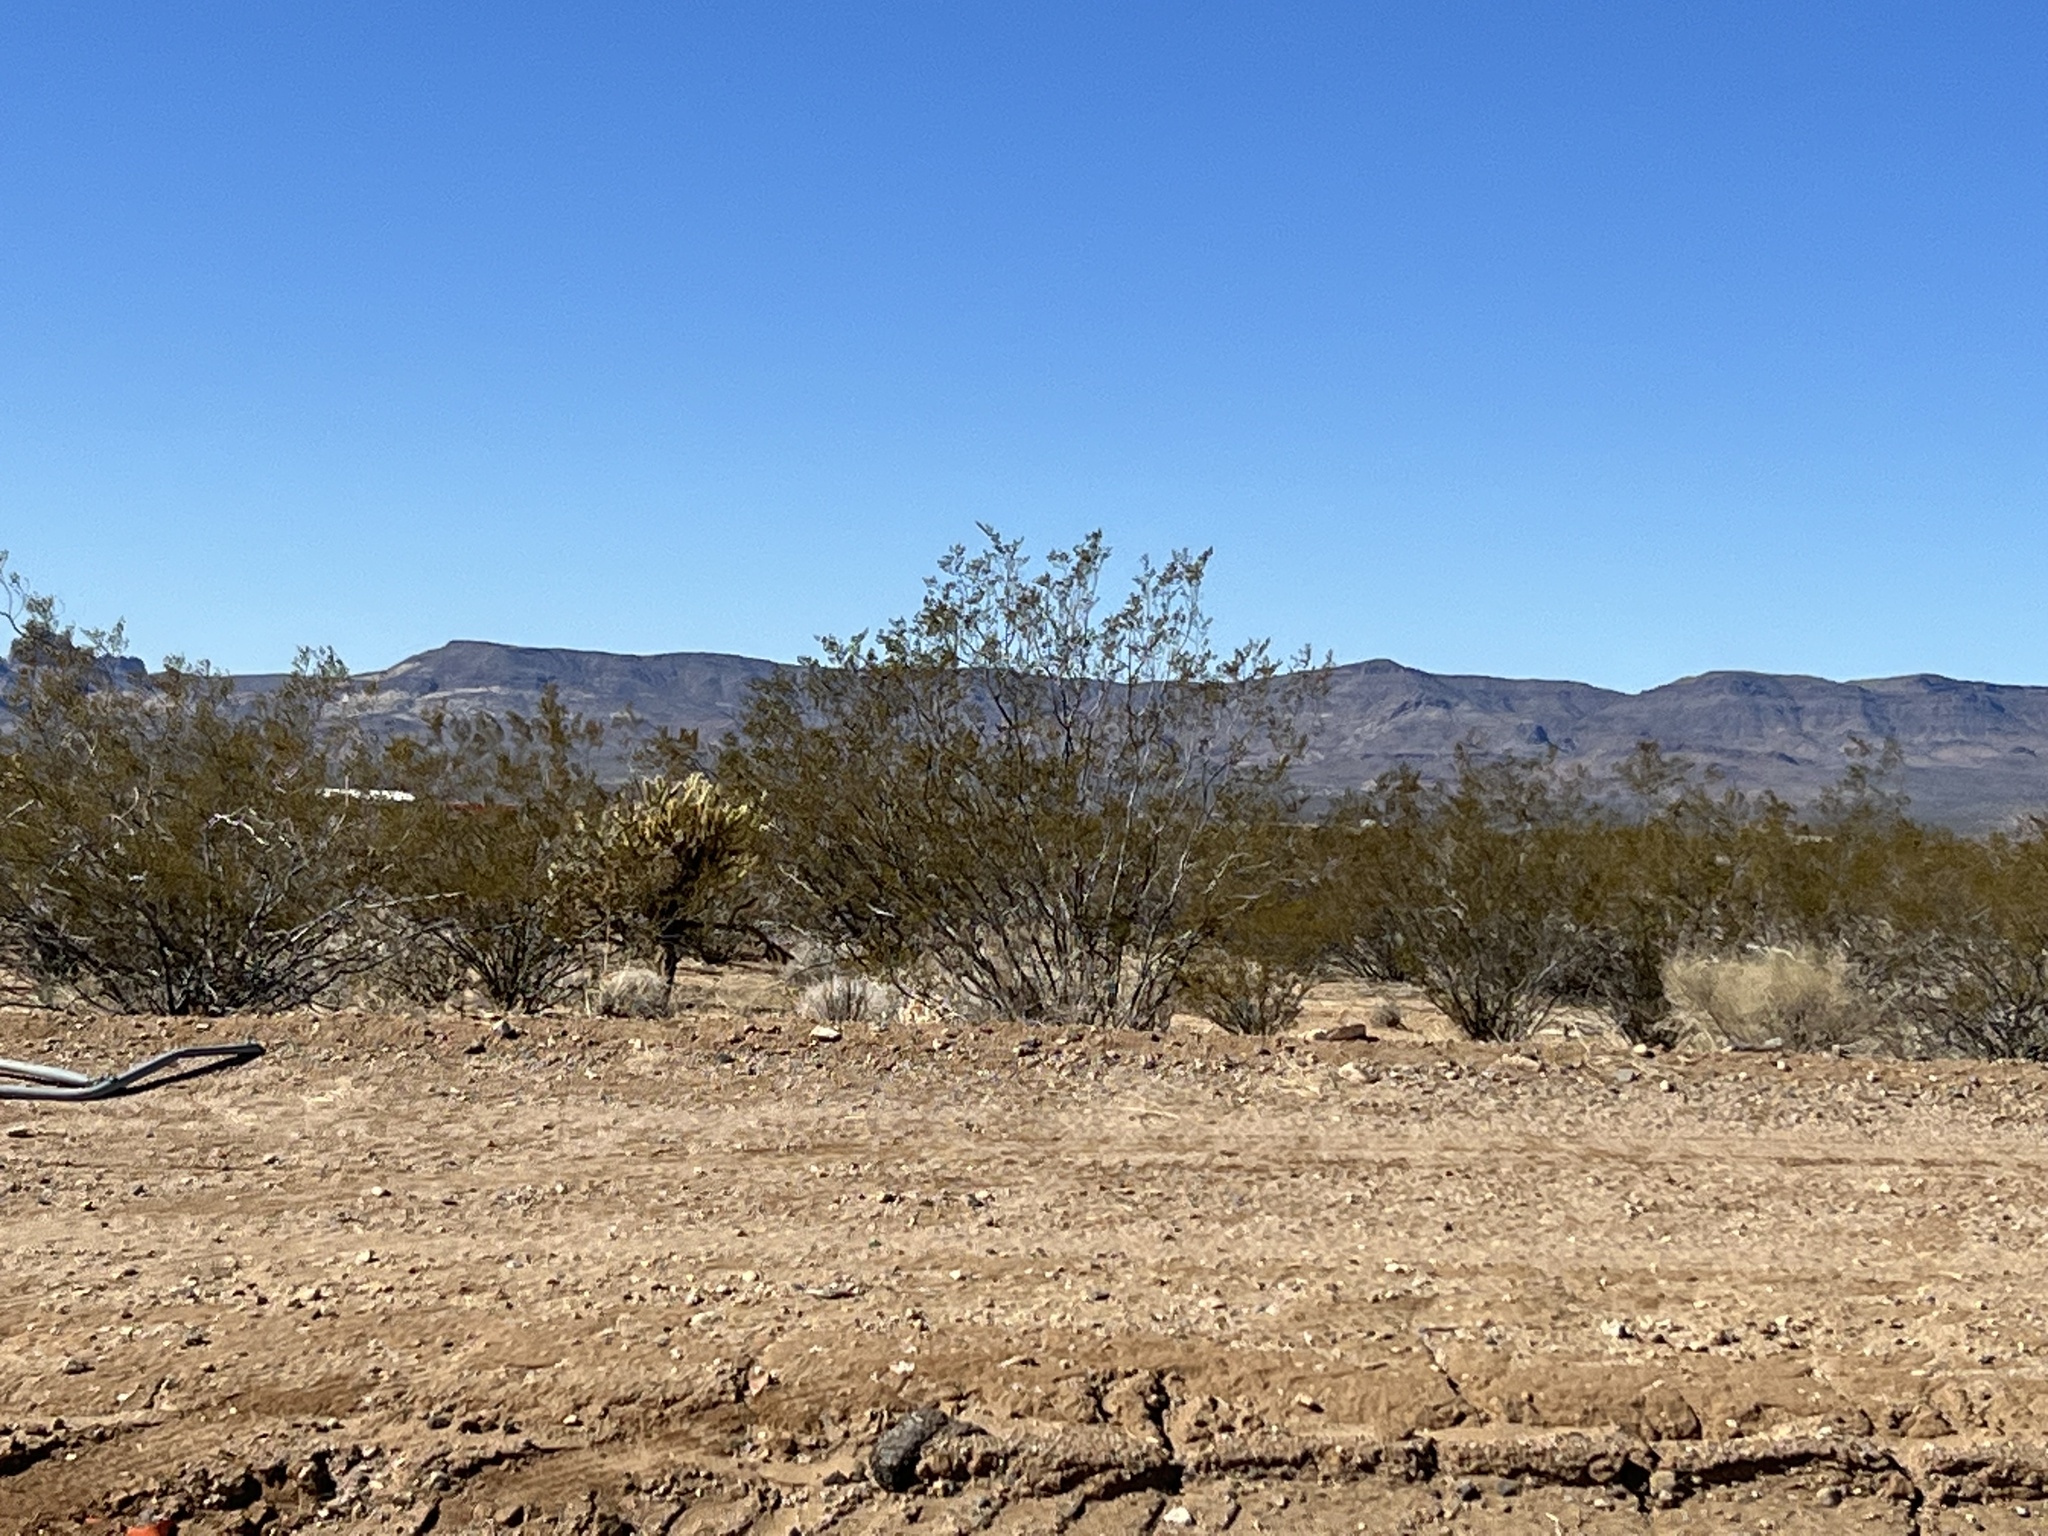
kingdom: Plantae
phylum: Tracheophyta
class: Magnoliopsida
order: Zygophyllales
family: Zygophyllaceae
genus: Larrea
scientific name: Larrea tridentata
